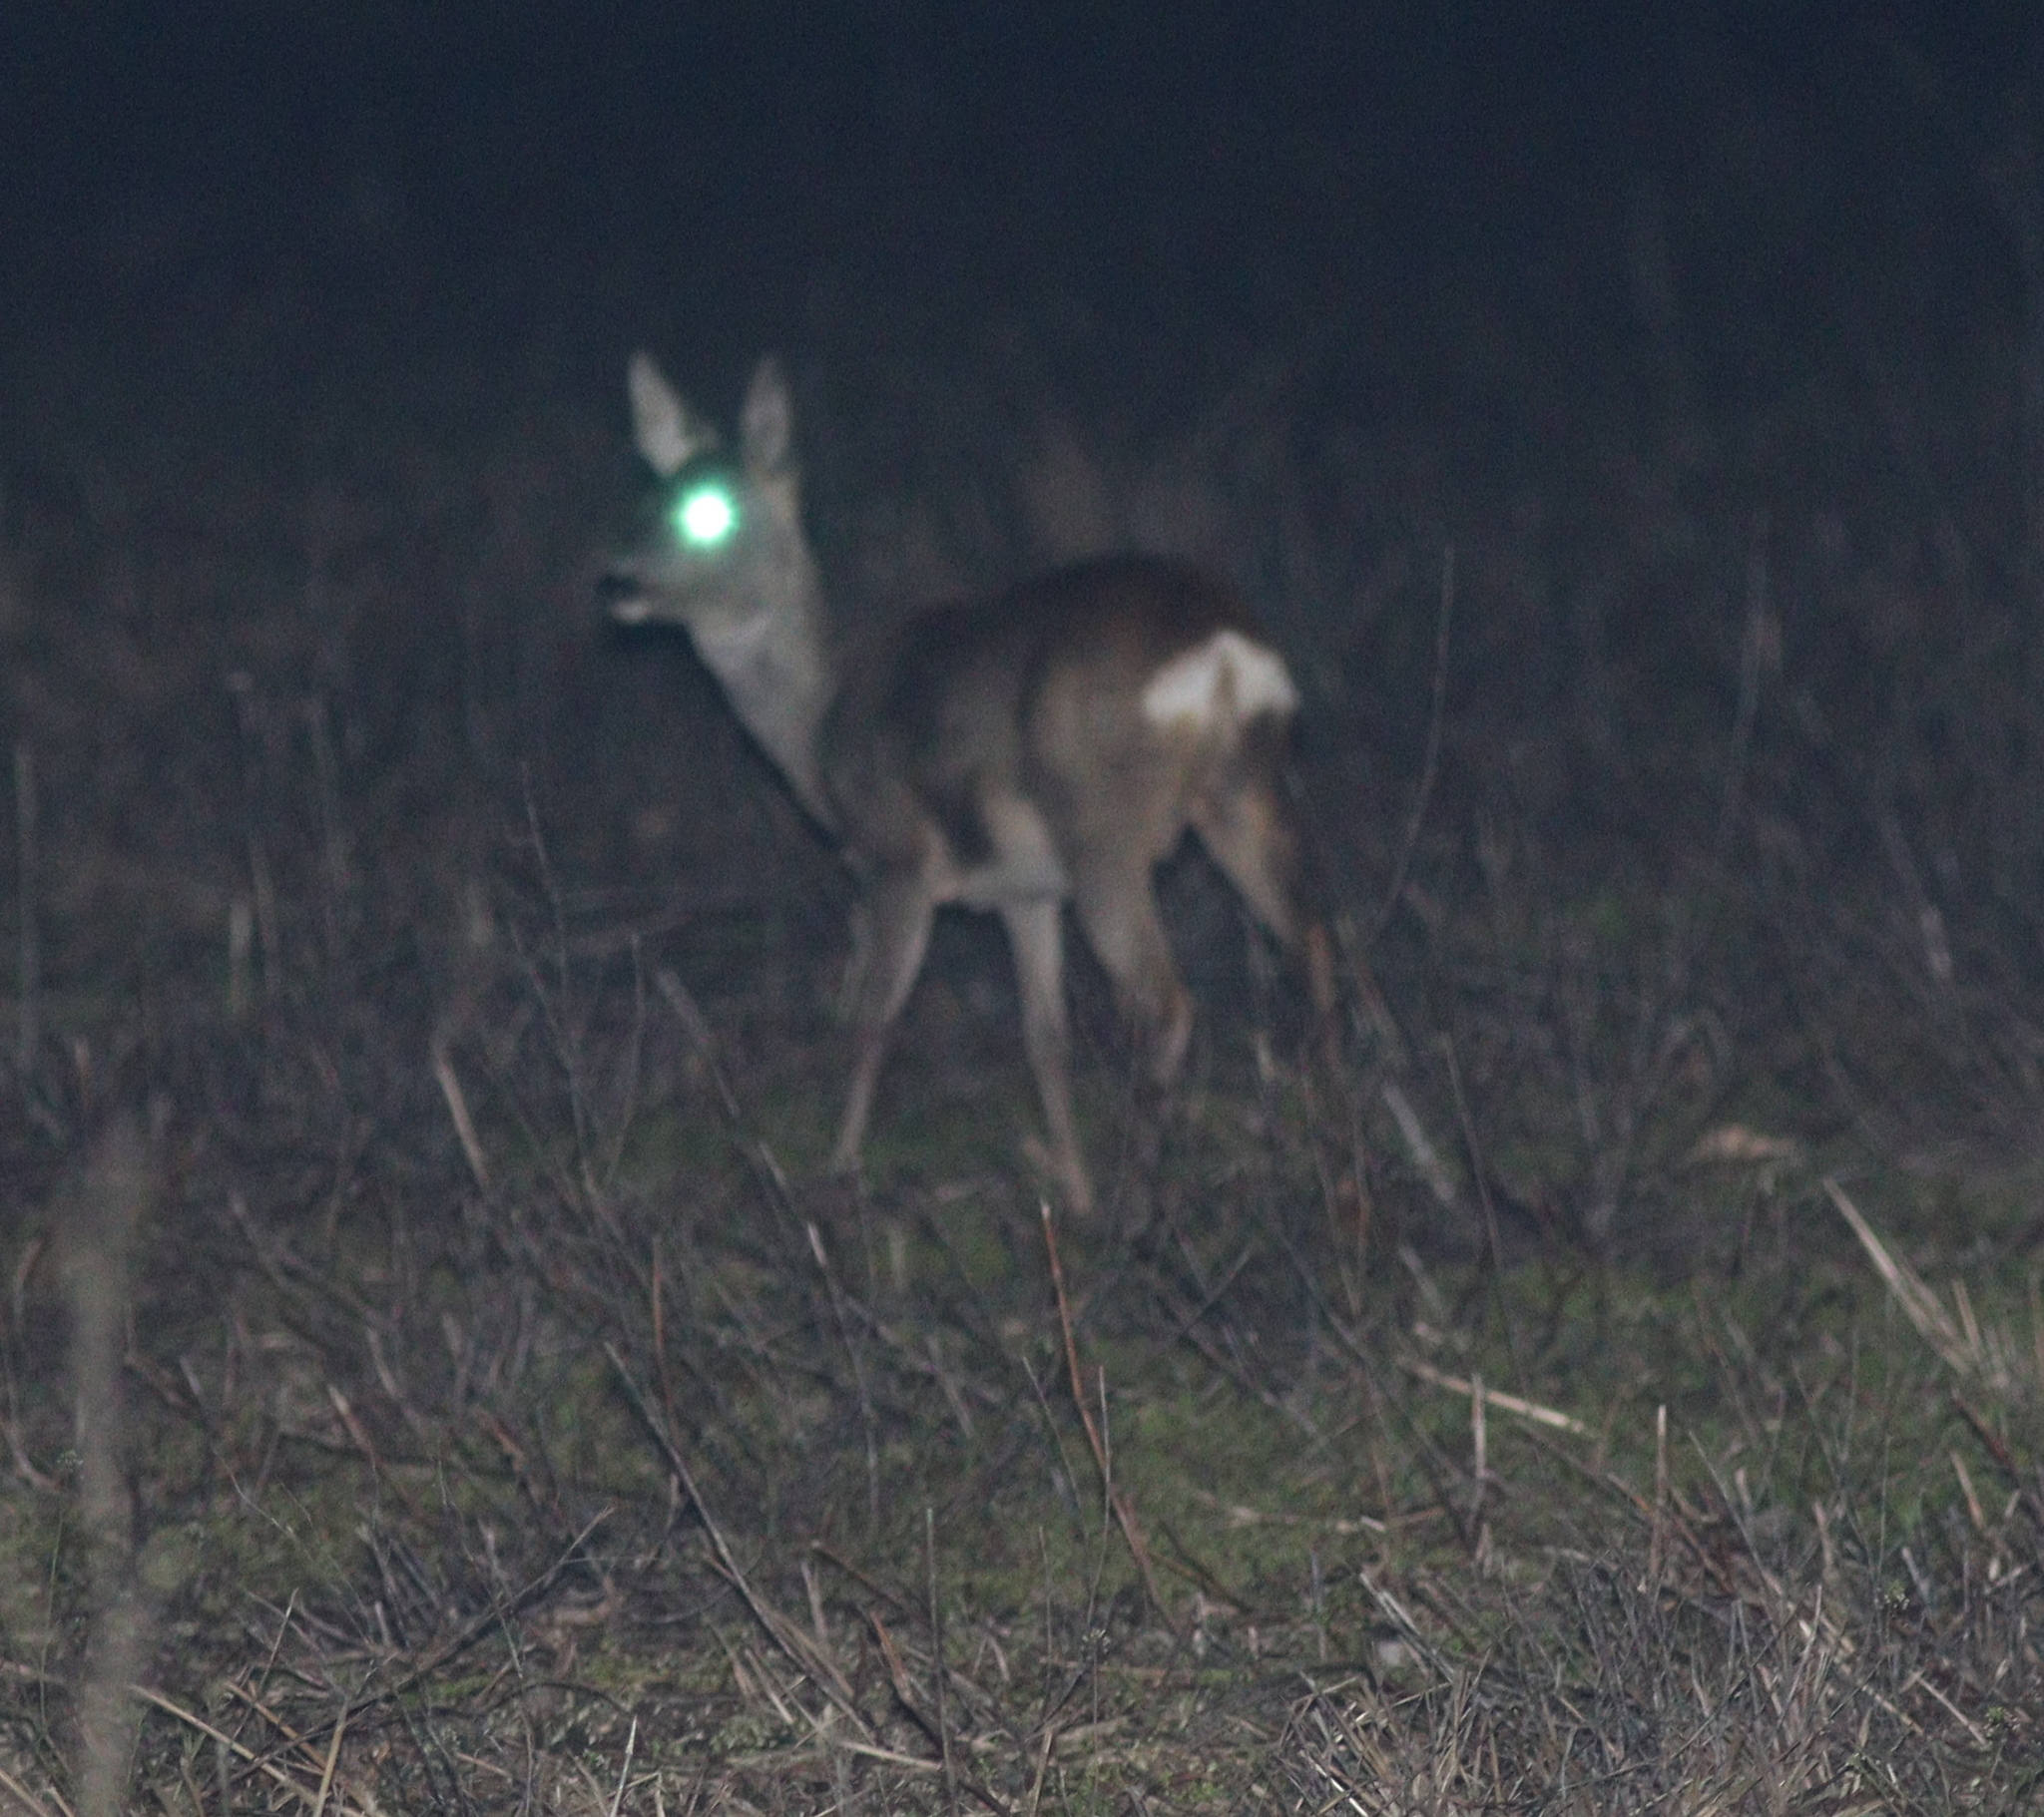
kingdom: Animalia
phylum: Chordata
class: Mammalia
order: Artiodactyla
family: Cervidae
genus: Capreolus
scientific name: Capreolus capreolus
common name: Western roe deer
